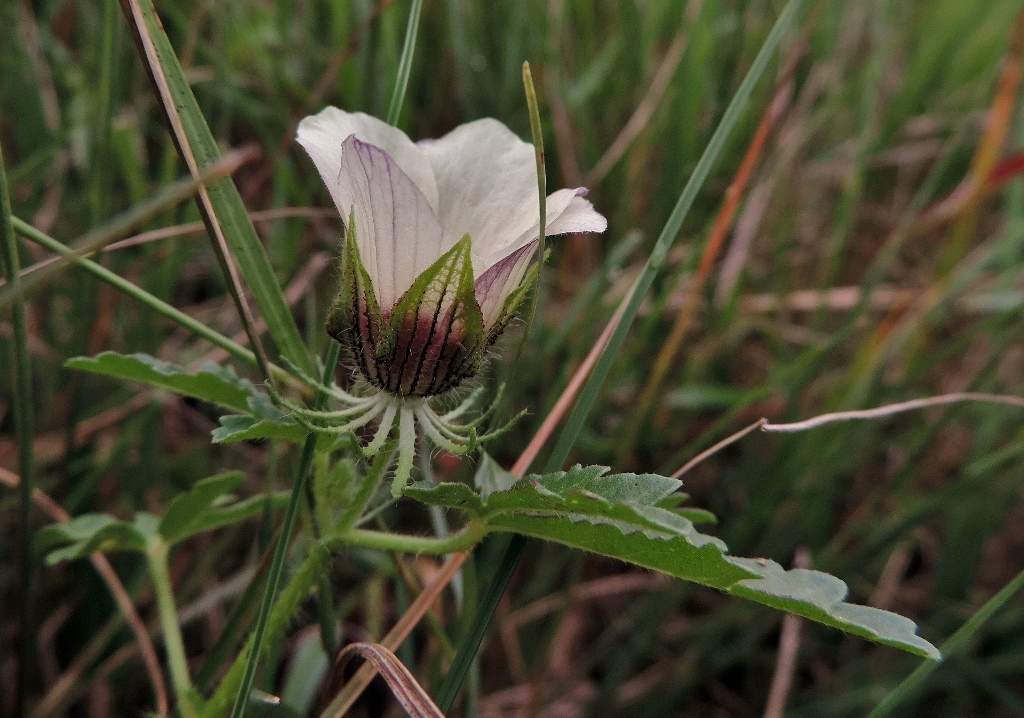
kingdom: Plantae
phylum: Tracheophyta
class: Magnoliopsida
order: Malvales
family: Malvaceae
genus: Hibiscus
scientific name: Hibiscus trionum
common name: Bladder ketmia
